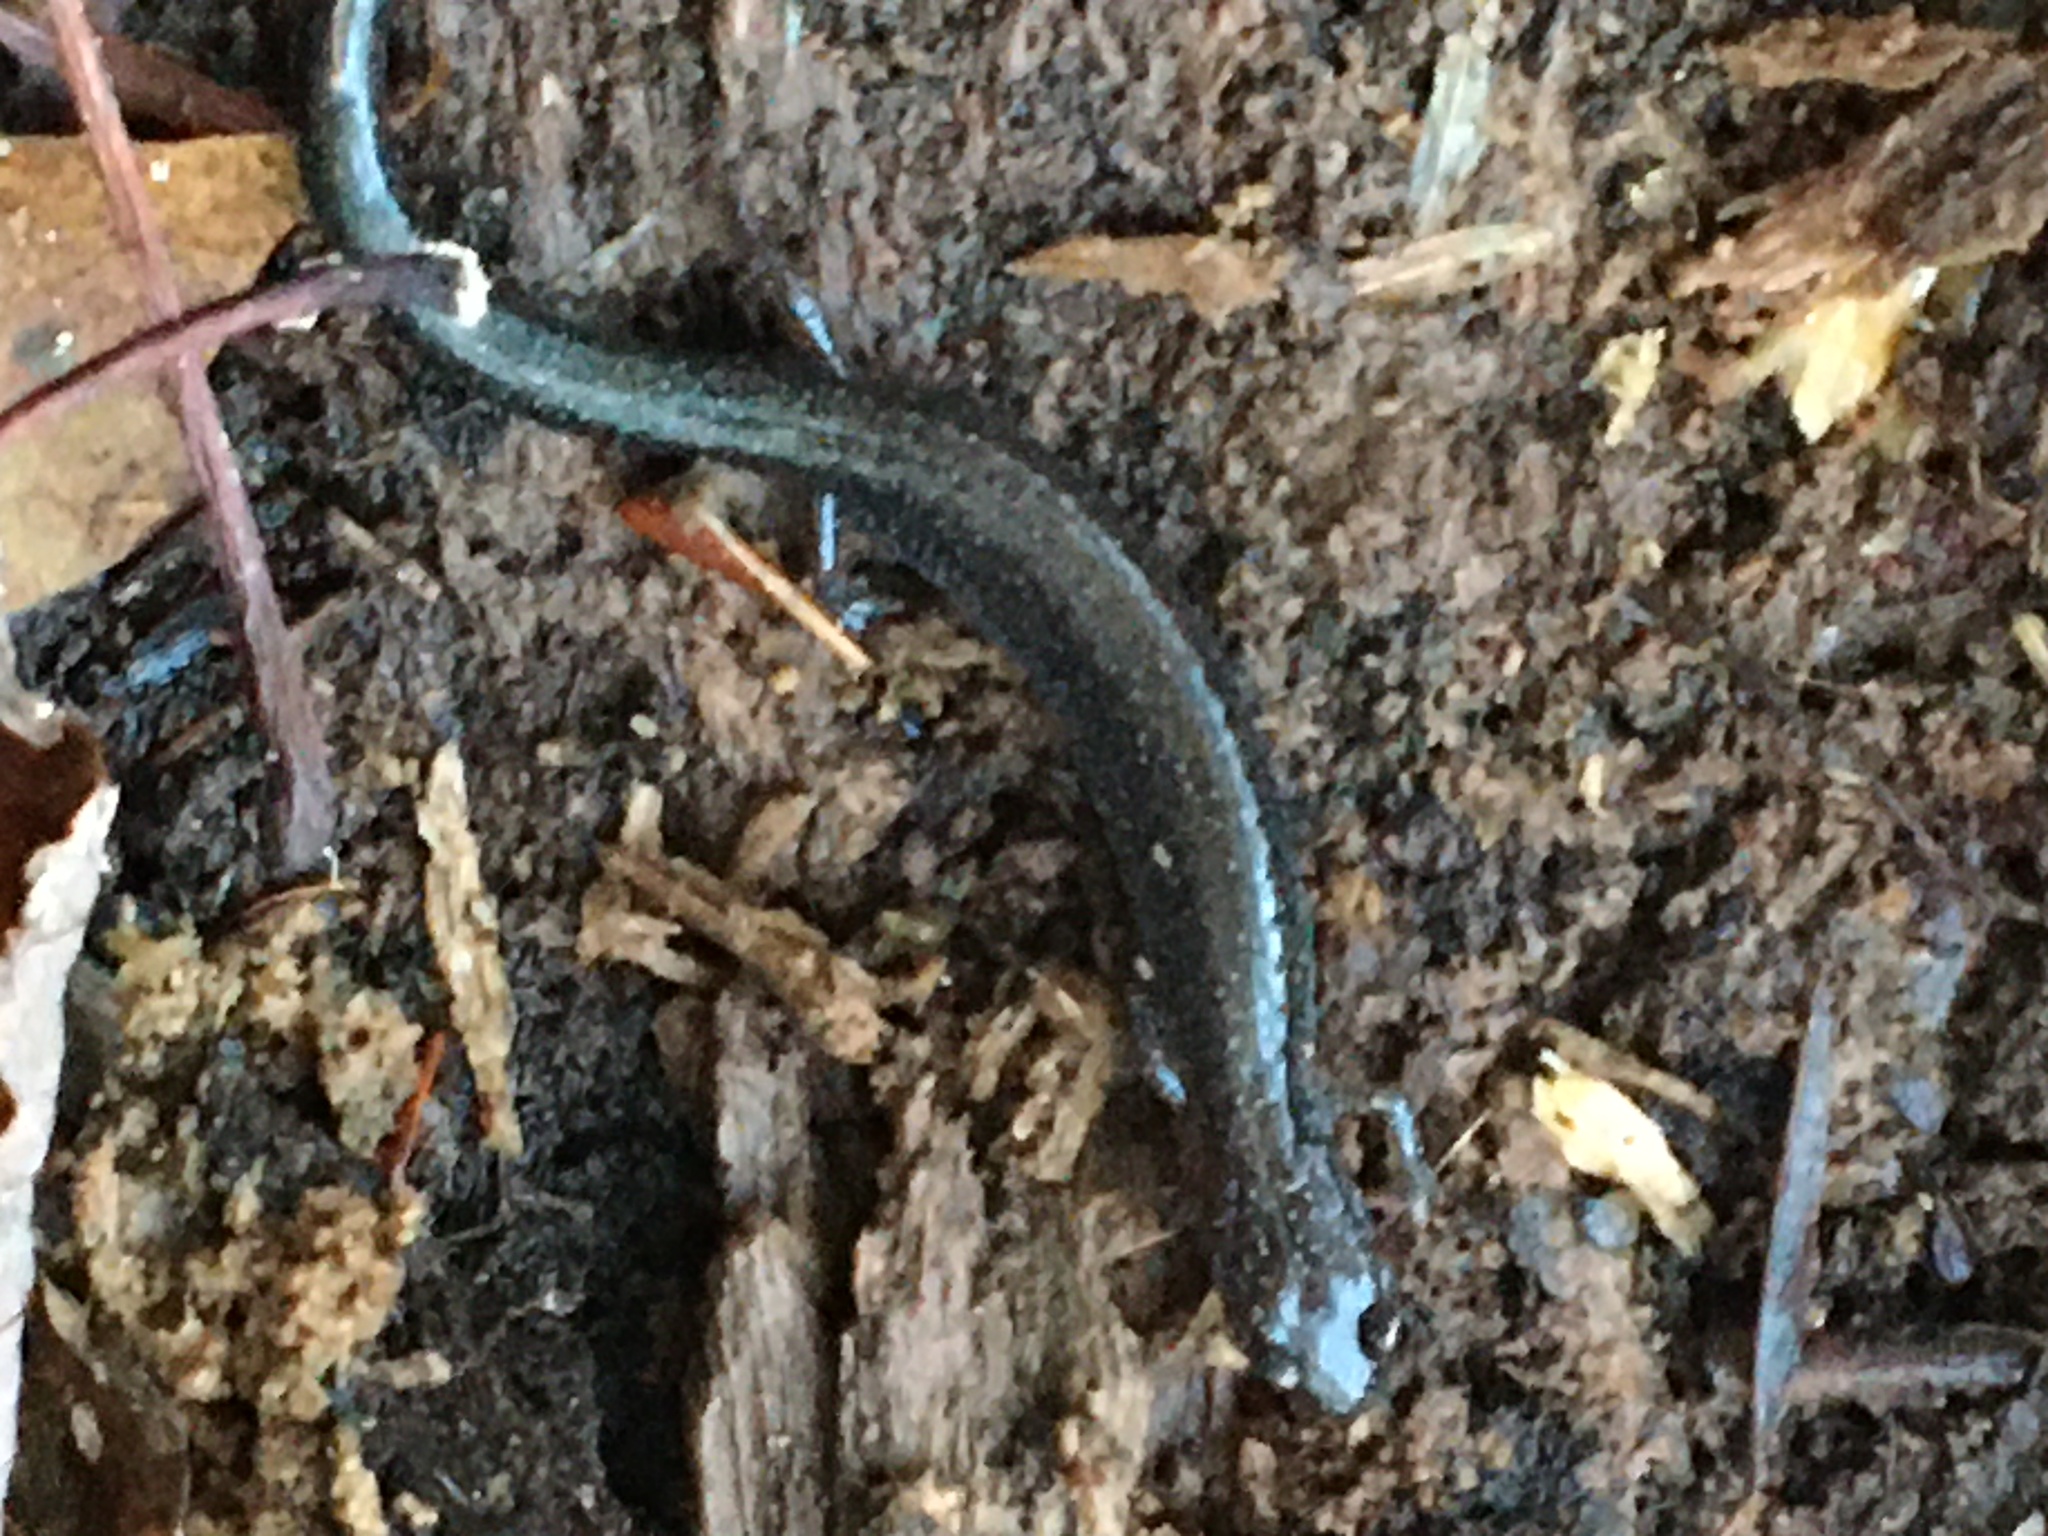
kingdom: Animalia
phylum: Chordata
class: Amphibia
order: Caudata
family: Plethodontidae
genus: Plethodon
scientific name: Plethodon cinereus
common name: Redback salamander
